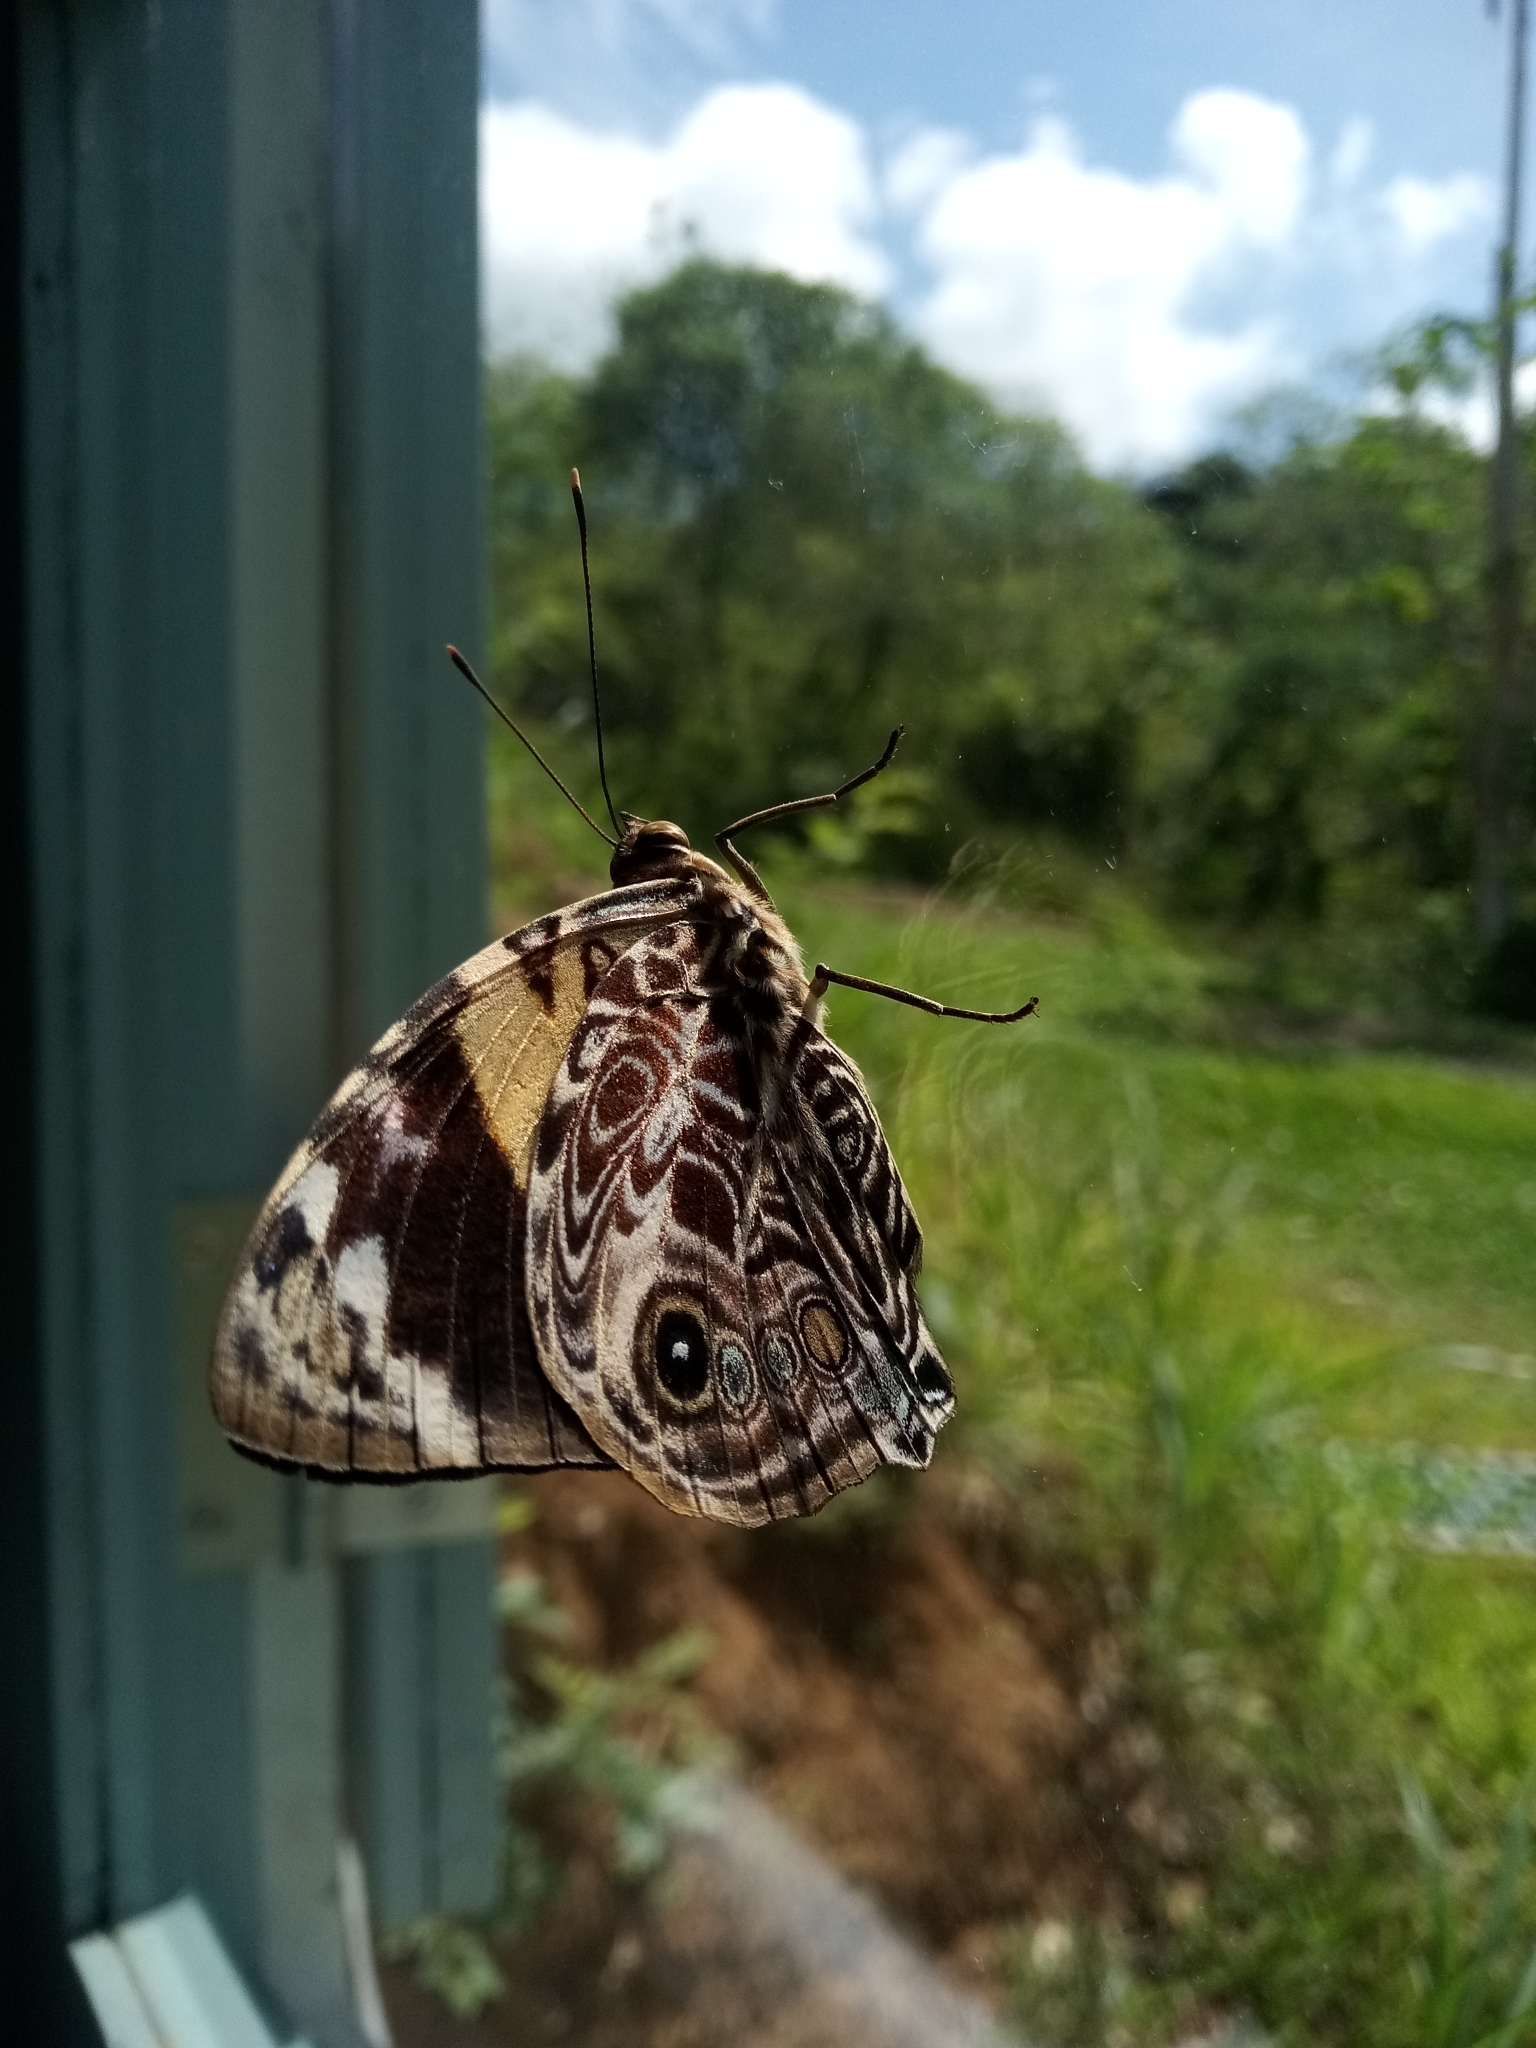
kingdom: Animalia
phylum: Arthropoda
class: Insecta
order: Lepidoptera
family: Nymphalidae
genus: Smyrna
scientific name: Smyrna blomfildia
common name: Blomfild's beauty
